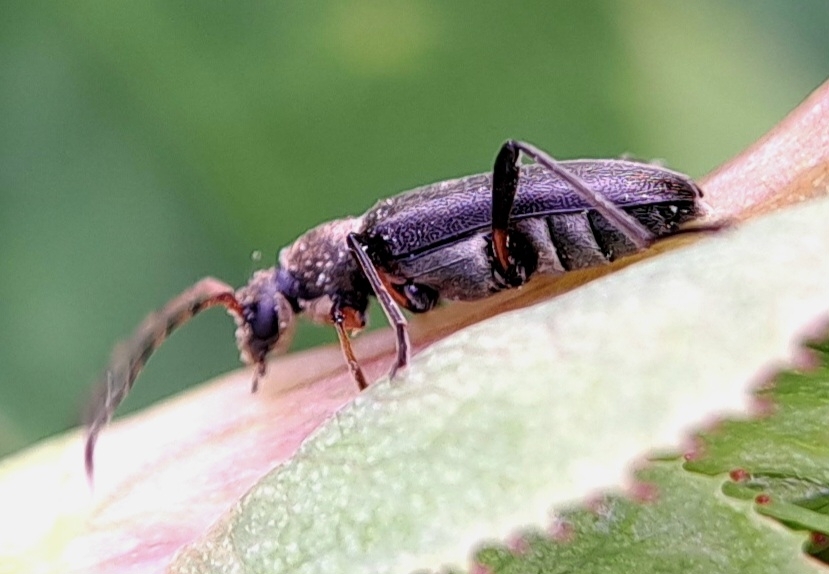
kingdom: Animalia
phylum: Arthropoda
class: Insecta
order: Coleoptera
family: Cerambycidae
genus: Grammoptera
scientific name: Grammoptera ruficornis
